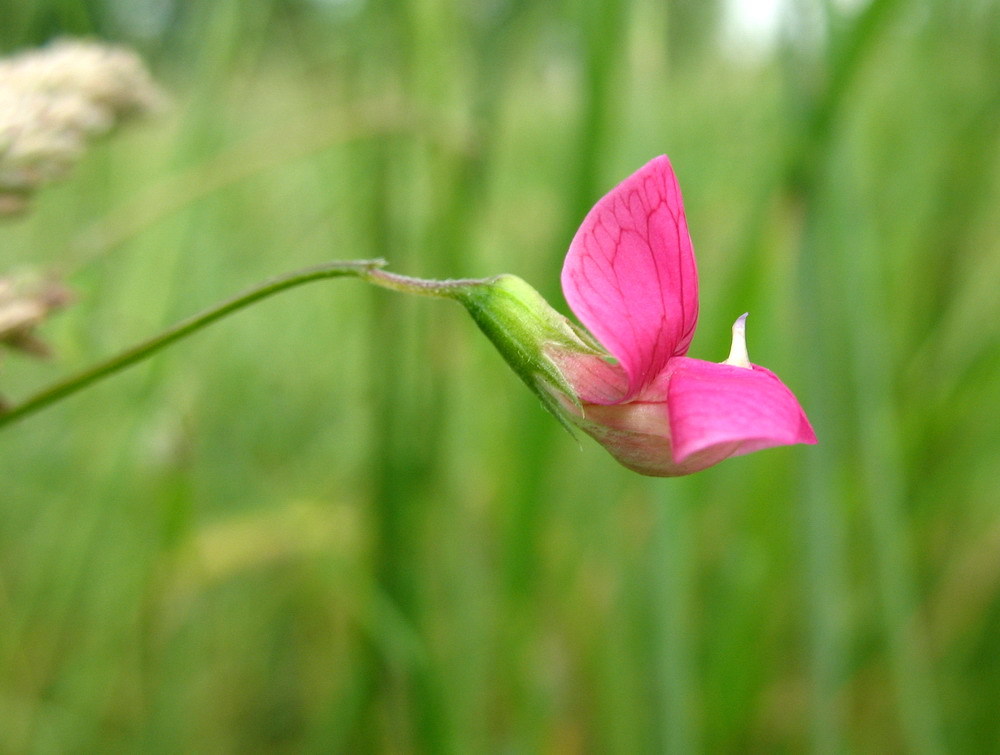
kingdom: Plantae
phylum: Tracheophyta
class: Magnoliopsida
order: Fabales
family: Fabaceae
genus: Lathyrus
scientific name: Lathyrus nissolia
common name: Grass vetchling
